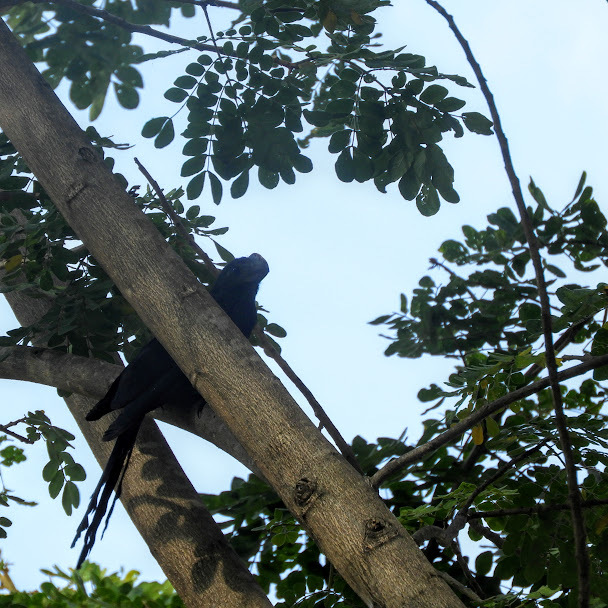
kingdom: Animalia
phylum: Chordata
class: Aves
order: Cuculiformes
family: Cuculidae
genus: Crotophaga
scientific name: Crotophaga ani
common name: Smooth-billed ani
